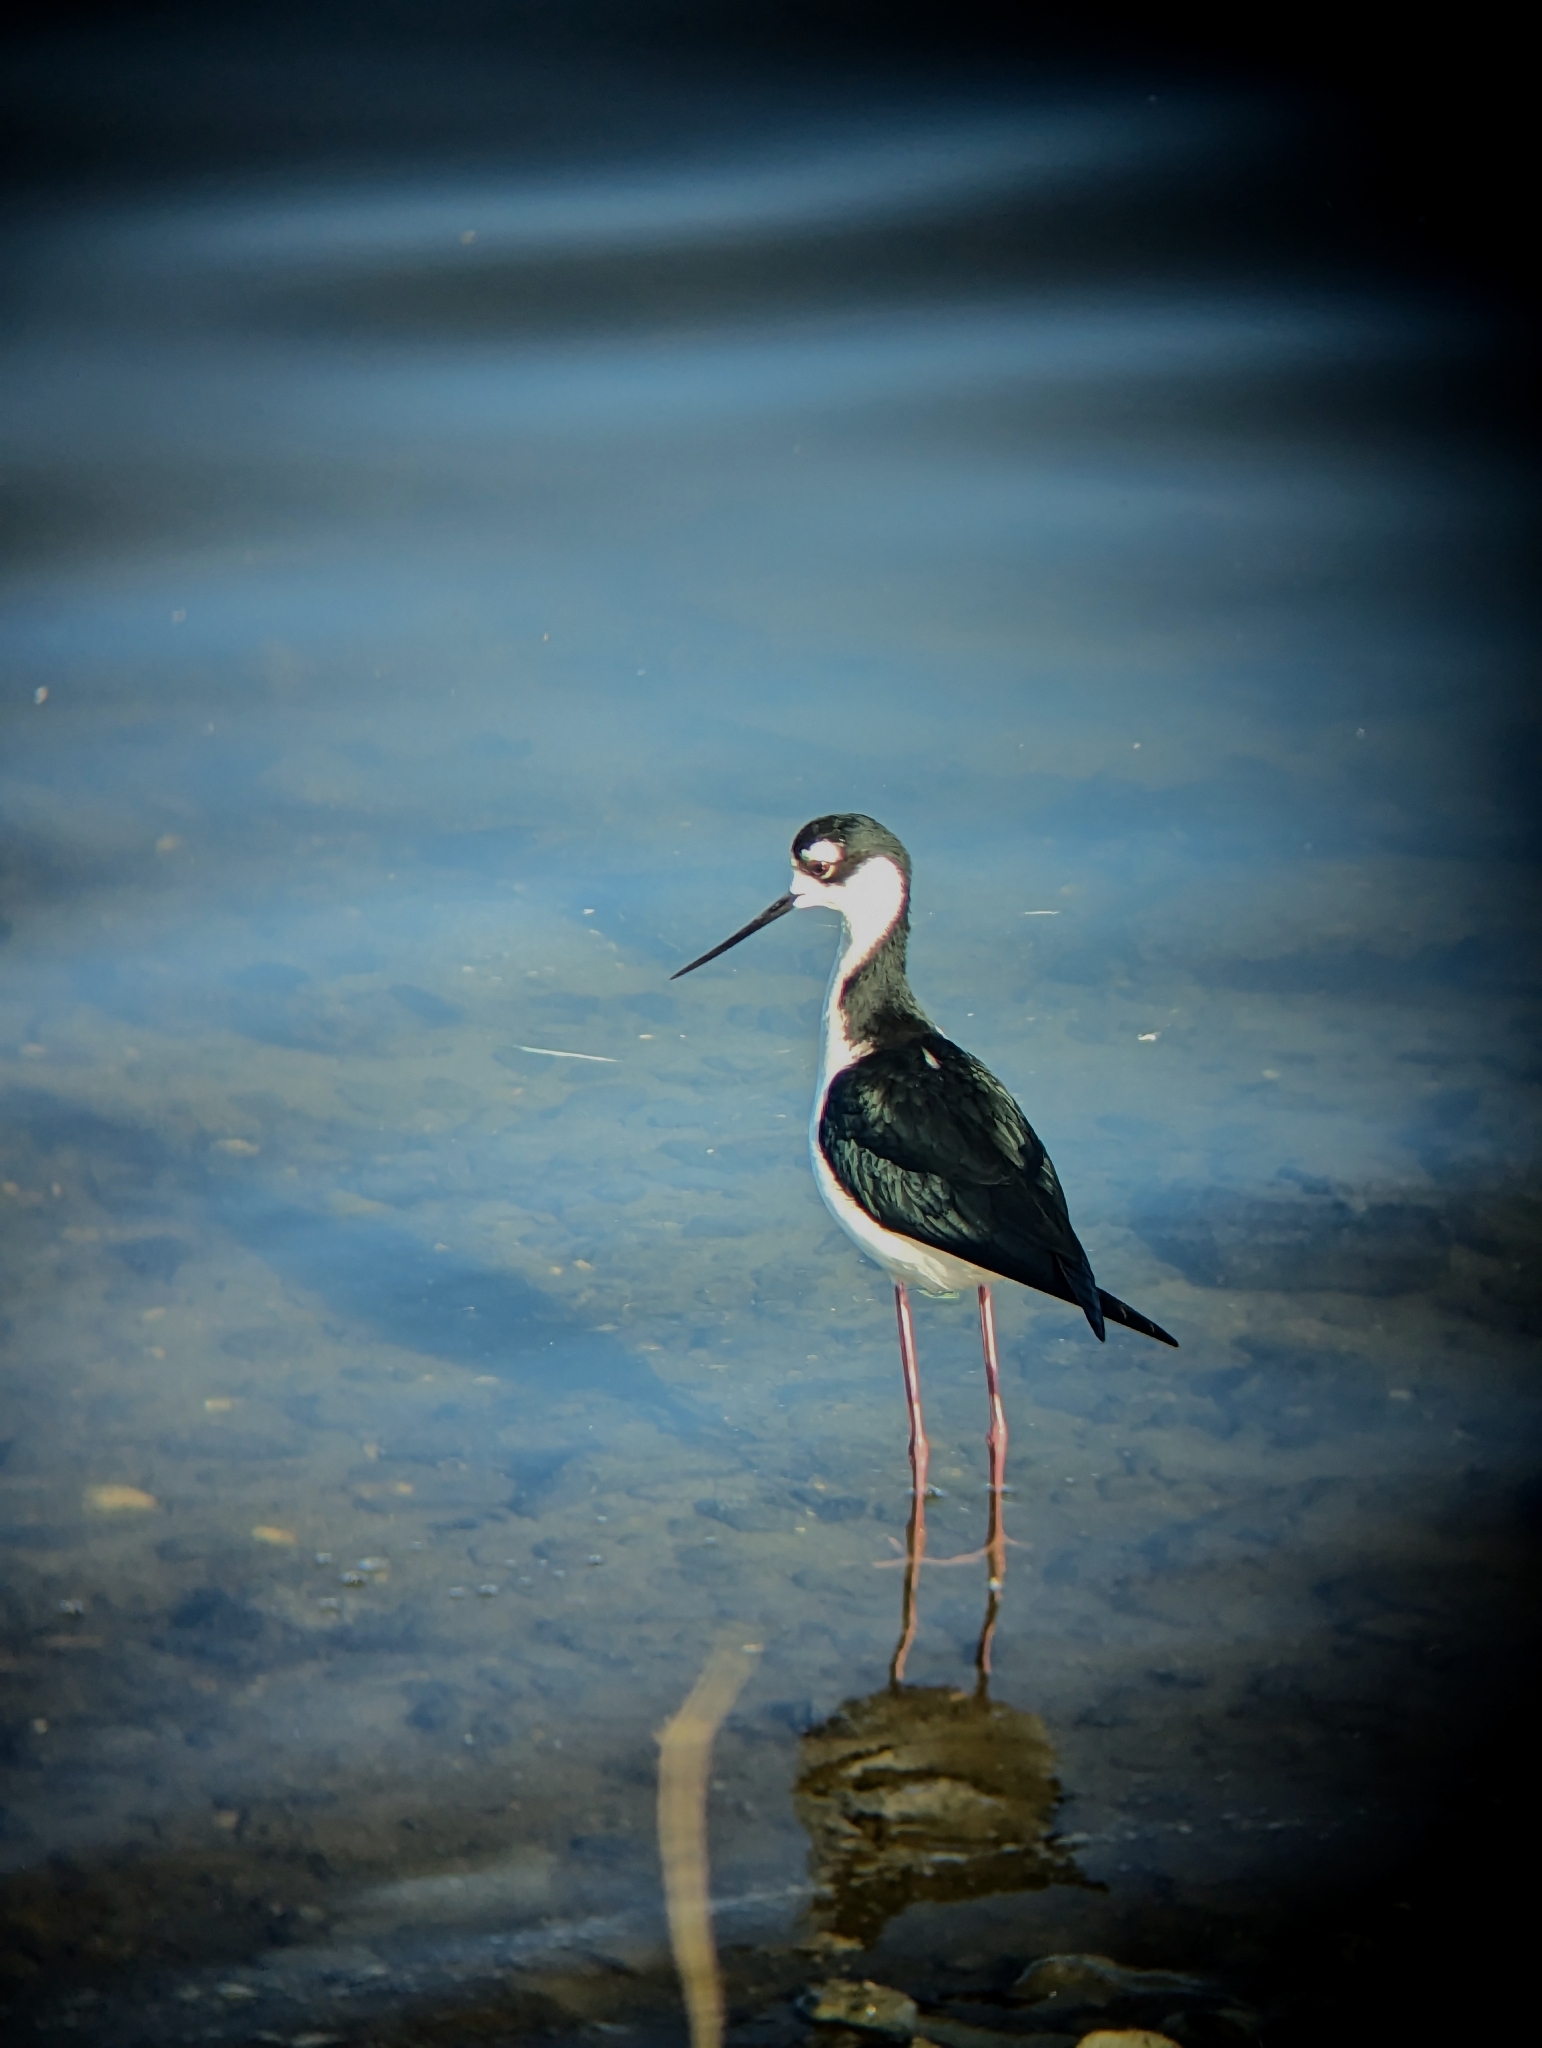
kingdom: Animalia
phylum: Chordata
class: Aves
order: Charadriiformes
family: Recurvirostridae
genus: Himantopus
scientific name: Himantopus mexicanus
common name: Black-necked stilt
